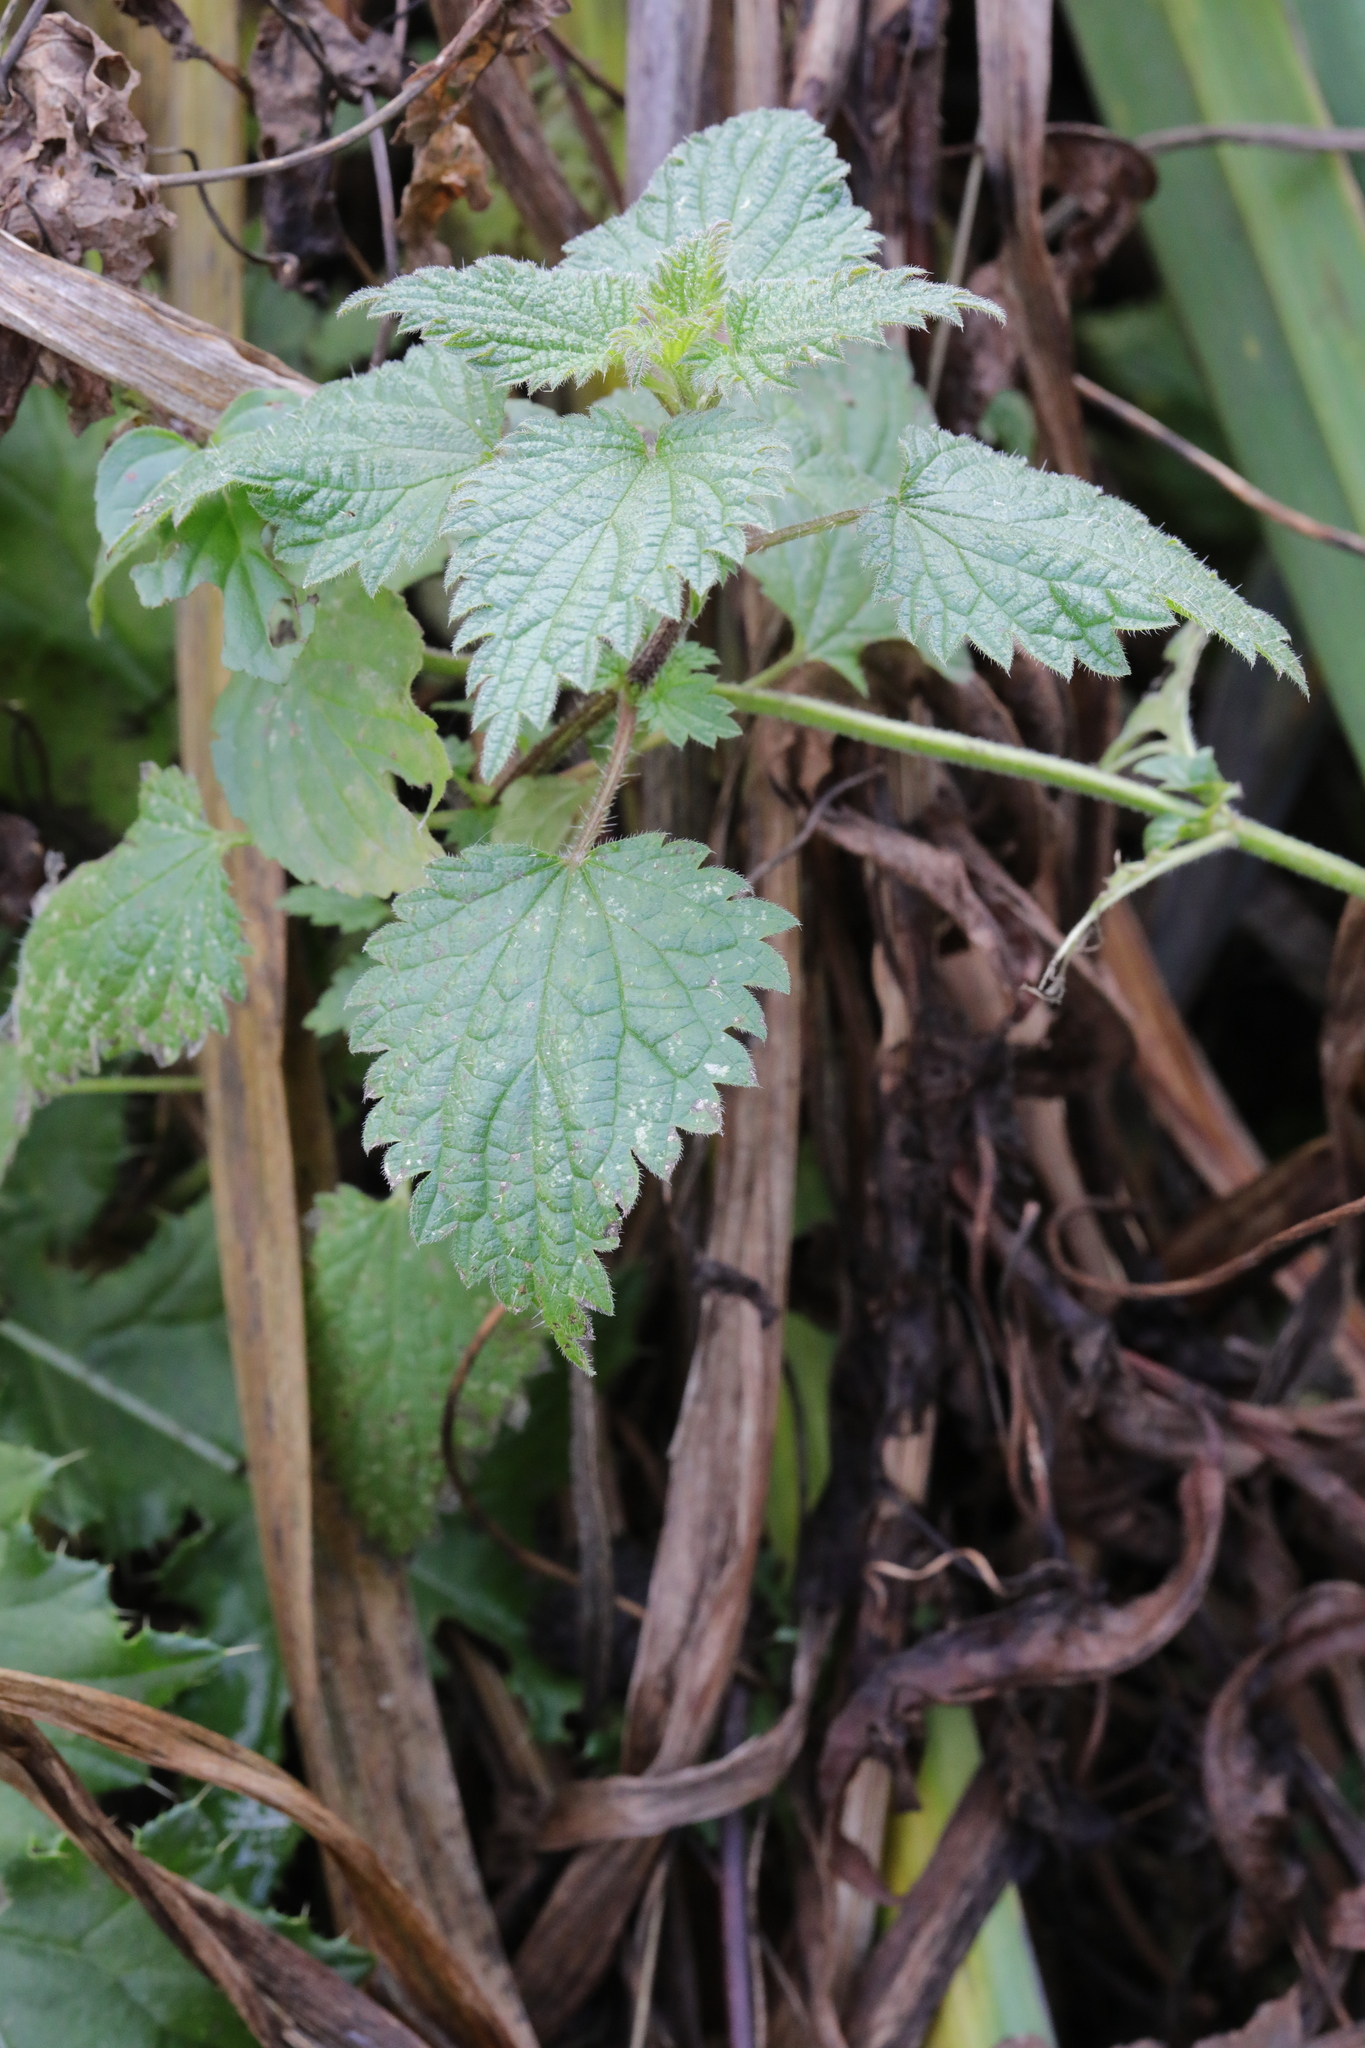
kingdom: Plantae
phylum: Tracheophyta
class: Magnoliopsida
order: Rosales
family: Urticaceae
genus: Urtica
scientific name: Urtica dioica
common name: Common nettle
